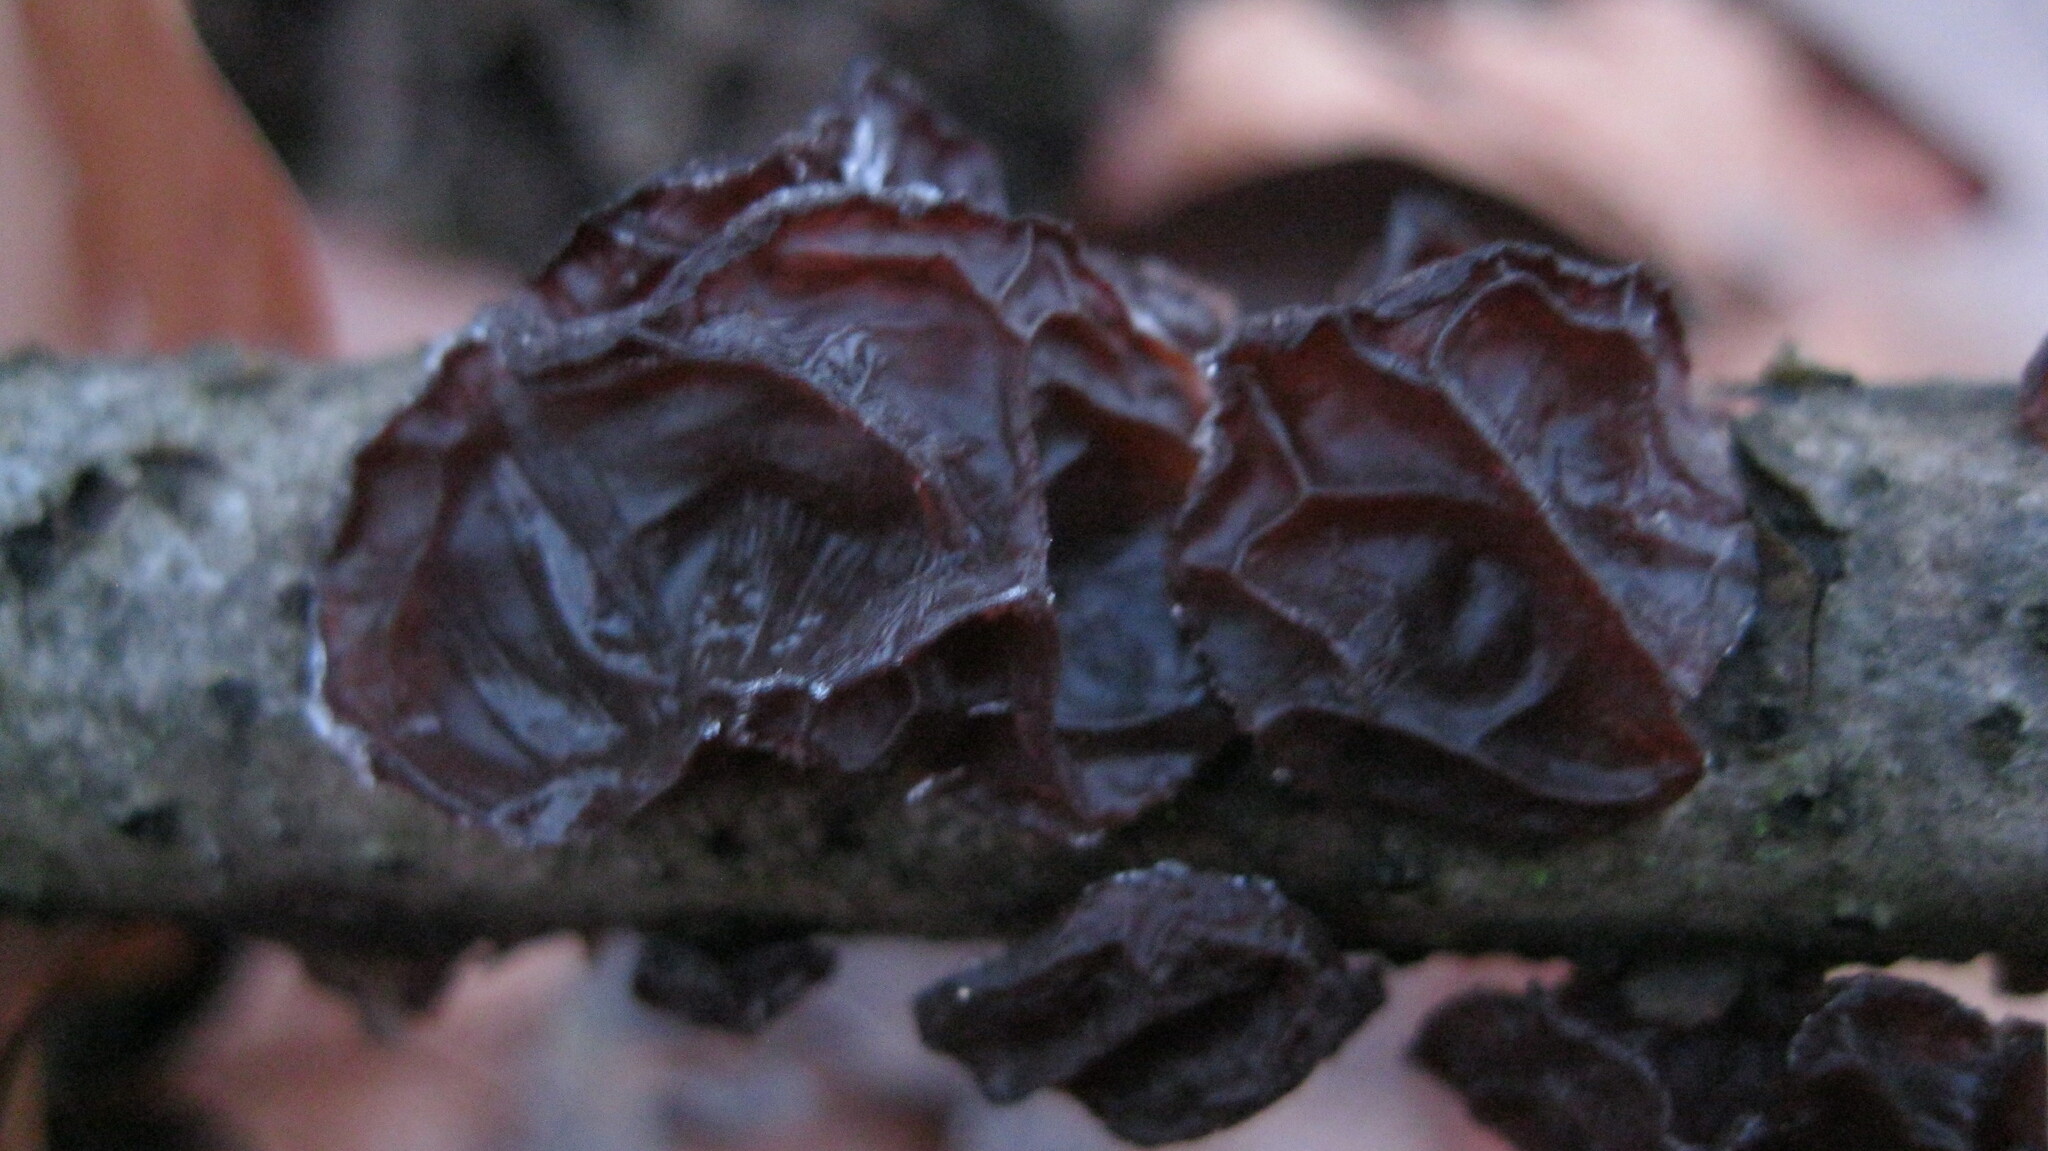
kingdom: Fungi
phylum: Basidiomycota
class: Agaricomycetes
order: Auriculariales
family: Auriculariaceae
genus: Exidia
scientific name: Exidia
